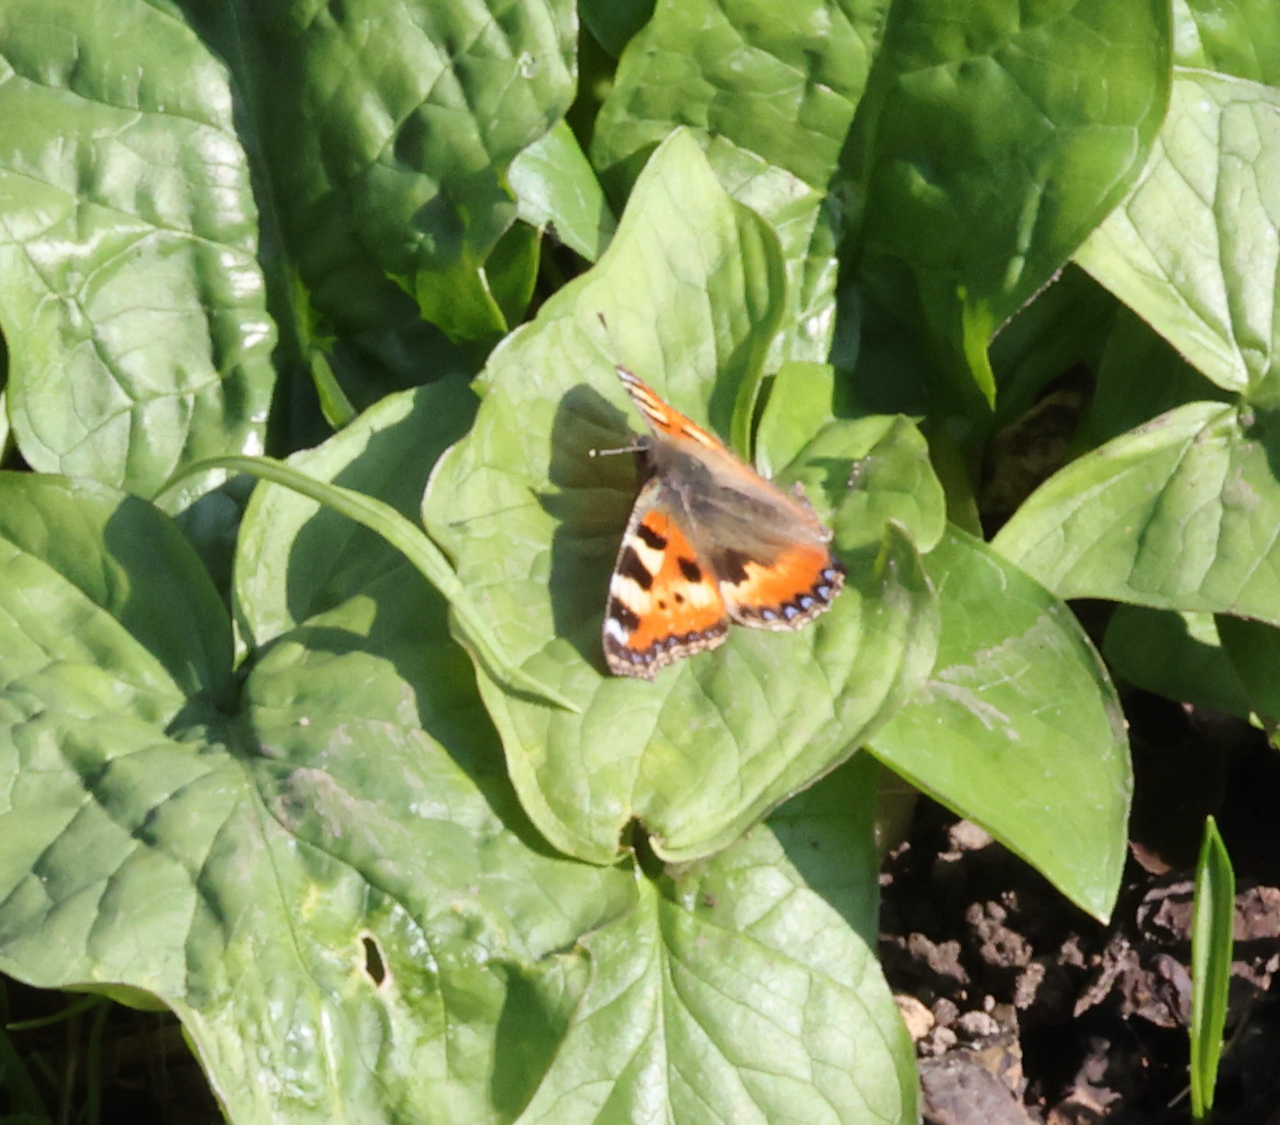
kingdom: Animalia
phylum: Arthropoda
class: Insecta
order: Lepidoptera
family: Nymphalidae
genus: Aglais
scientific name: Aglais urticae
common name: Small tortoiseshell
